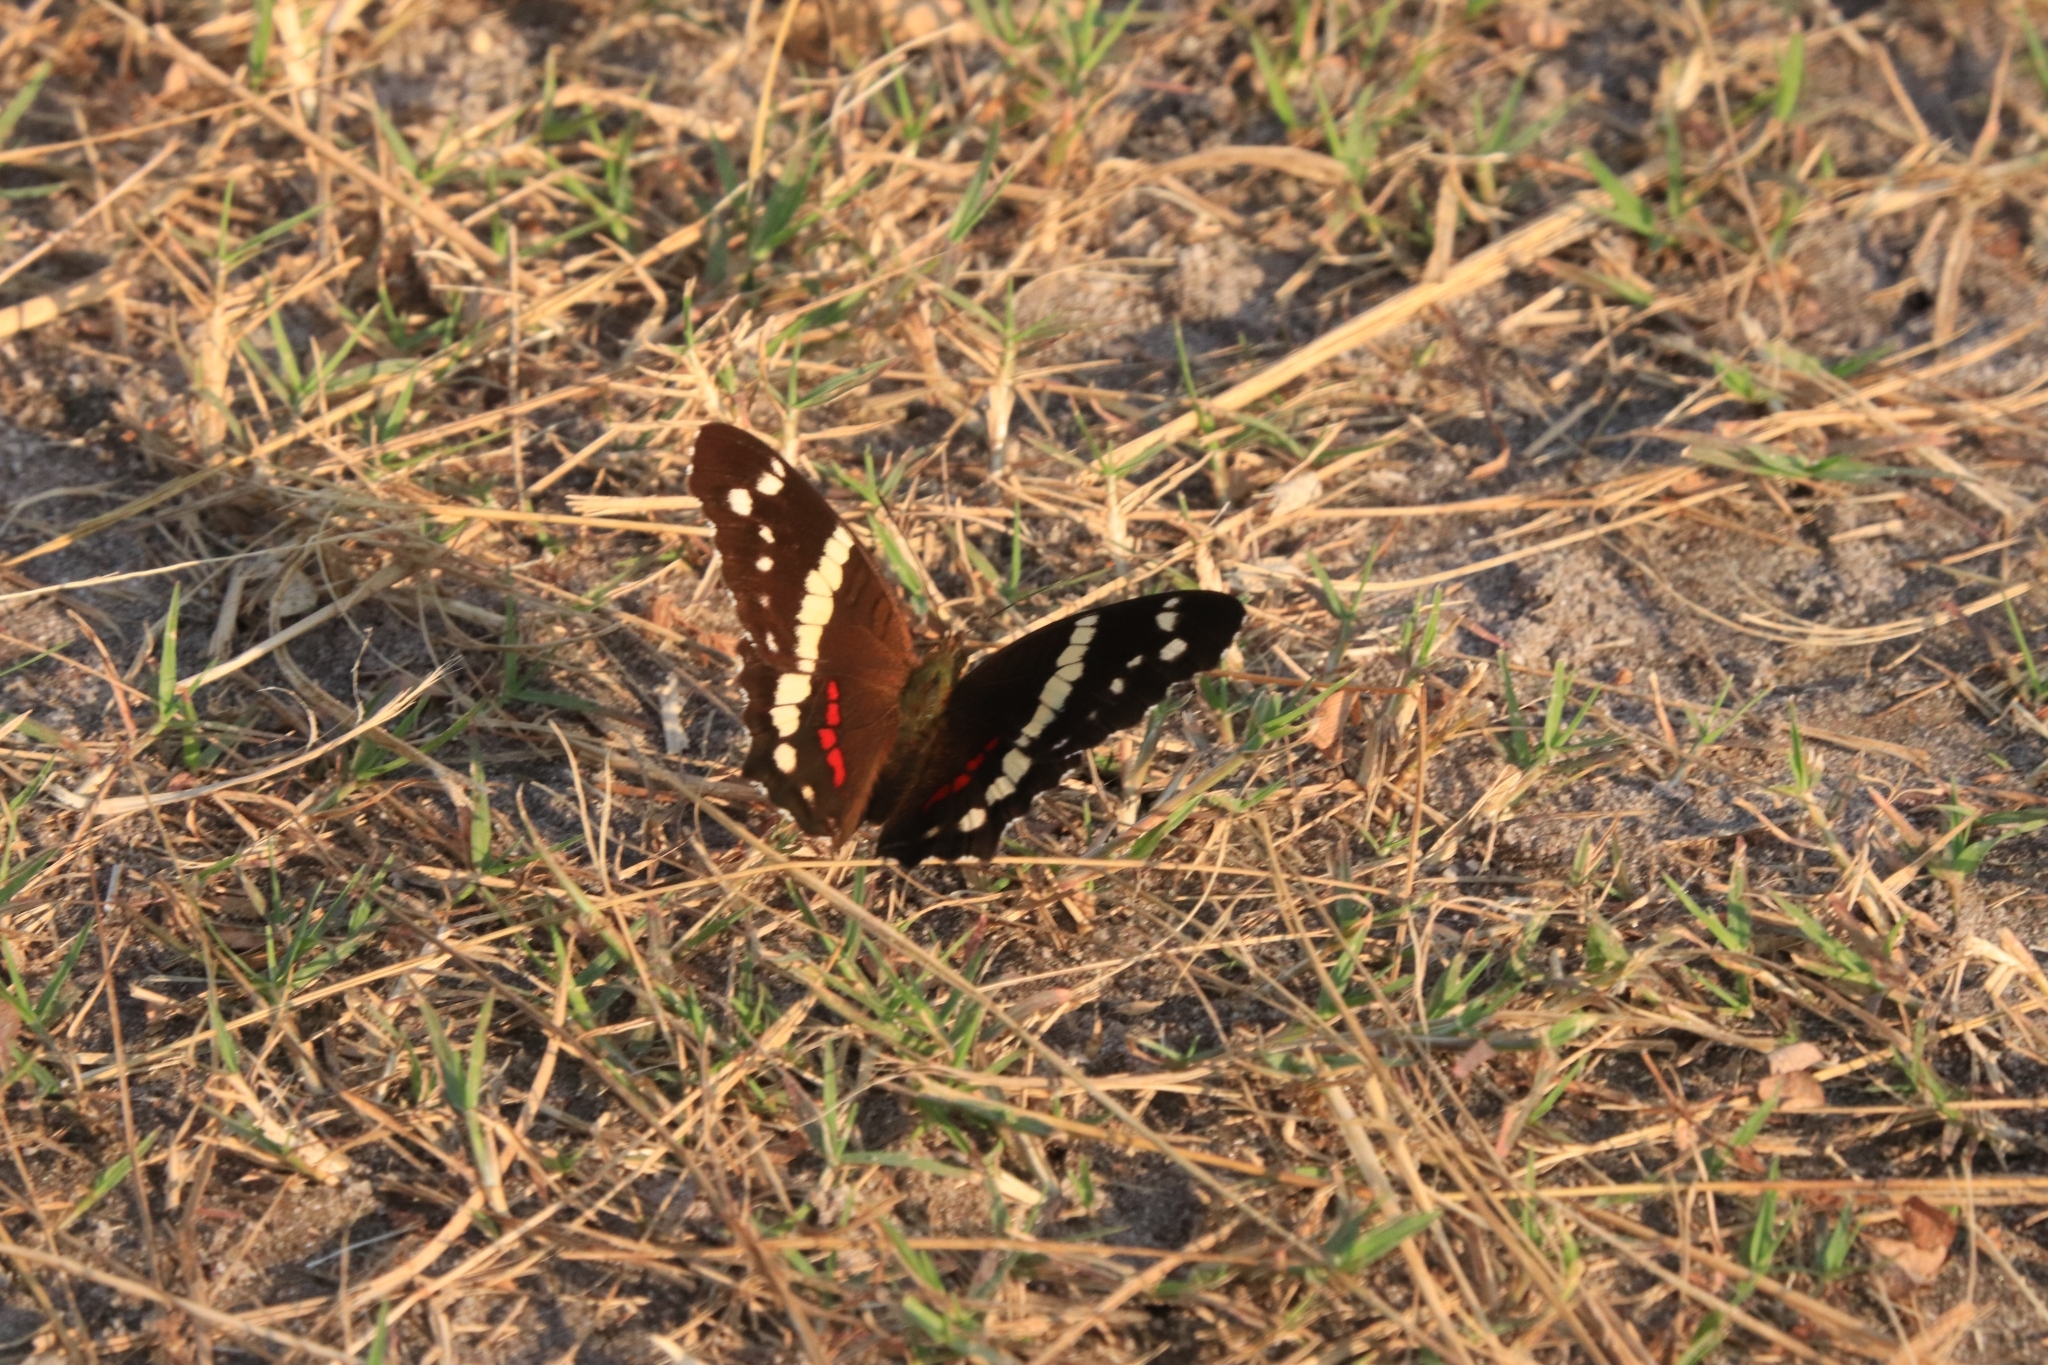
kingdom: Animalia
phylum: Arthropoda
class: Insecta
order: Lepidoptera
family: Nymphalidae
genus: Anartia
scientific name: Anartia fatima
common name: Banded peacock
